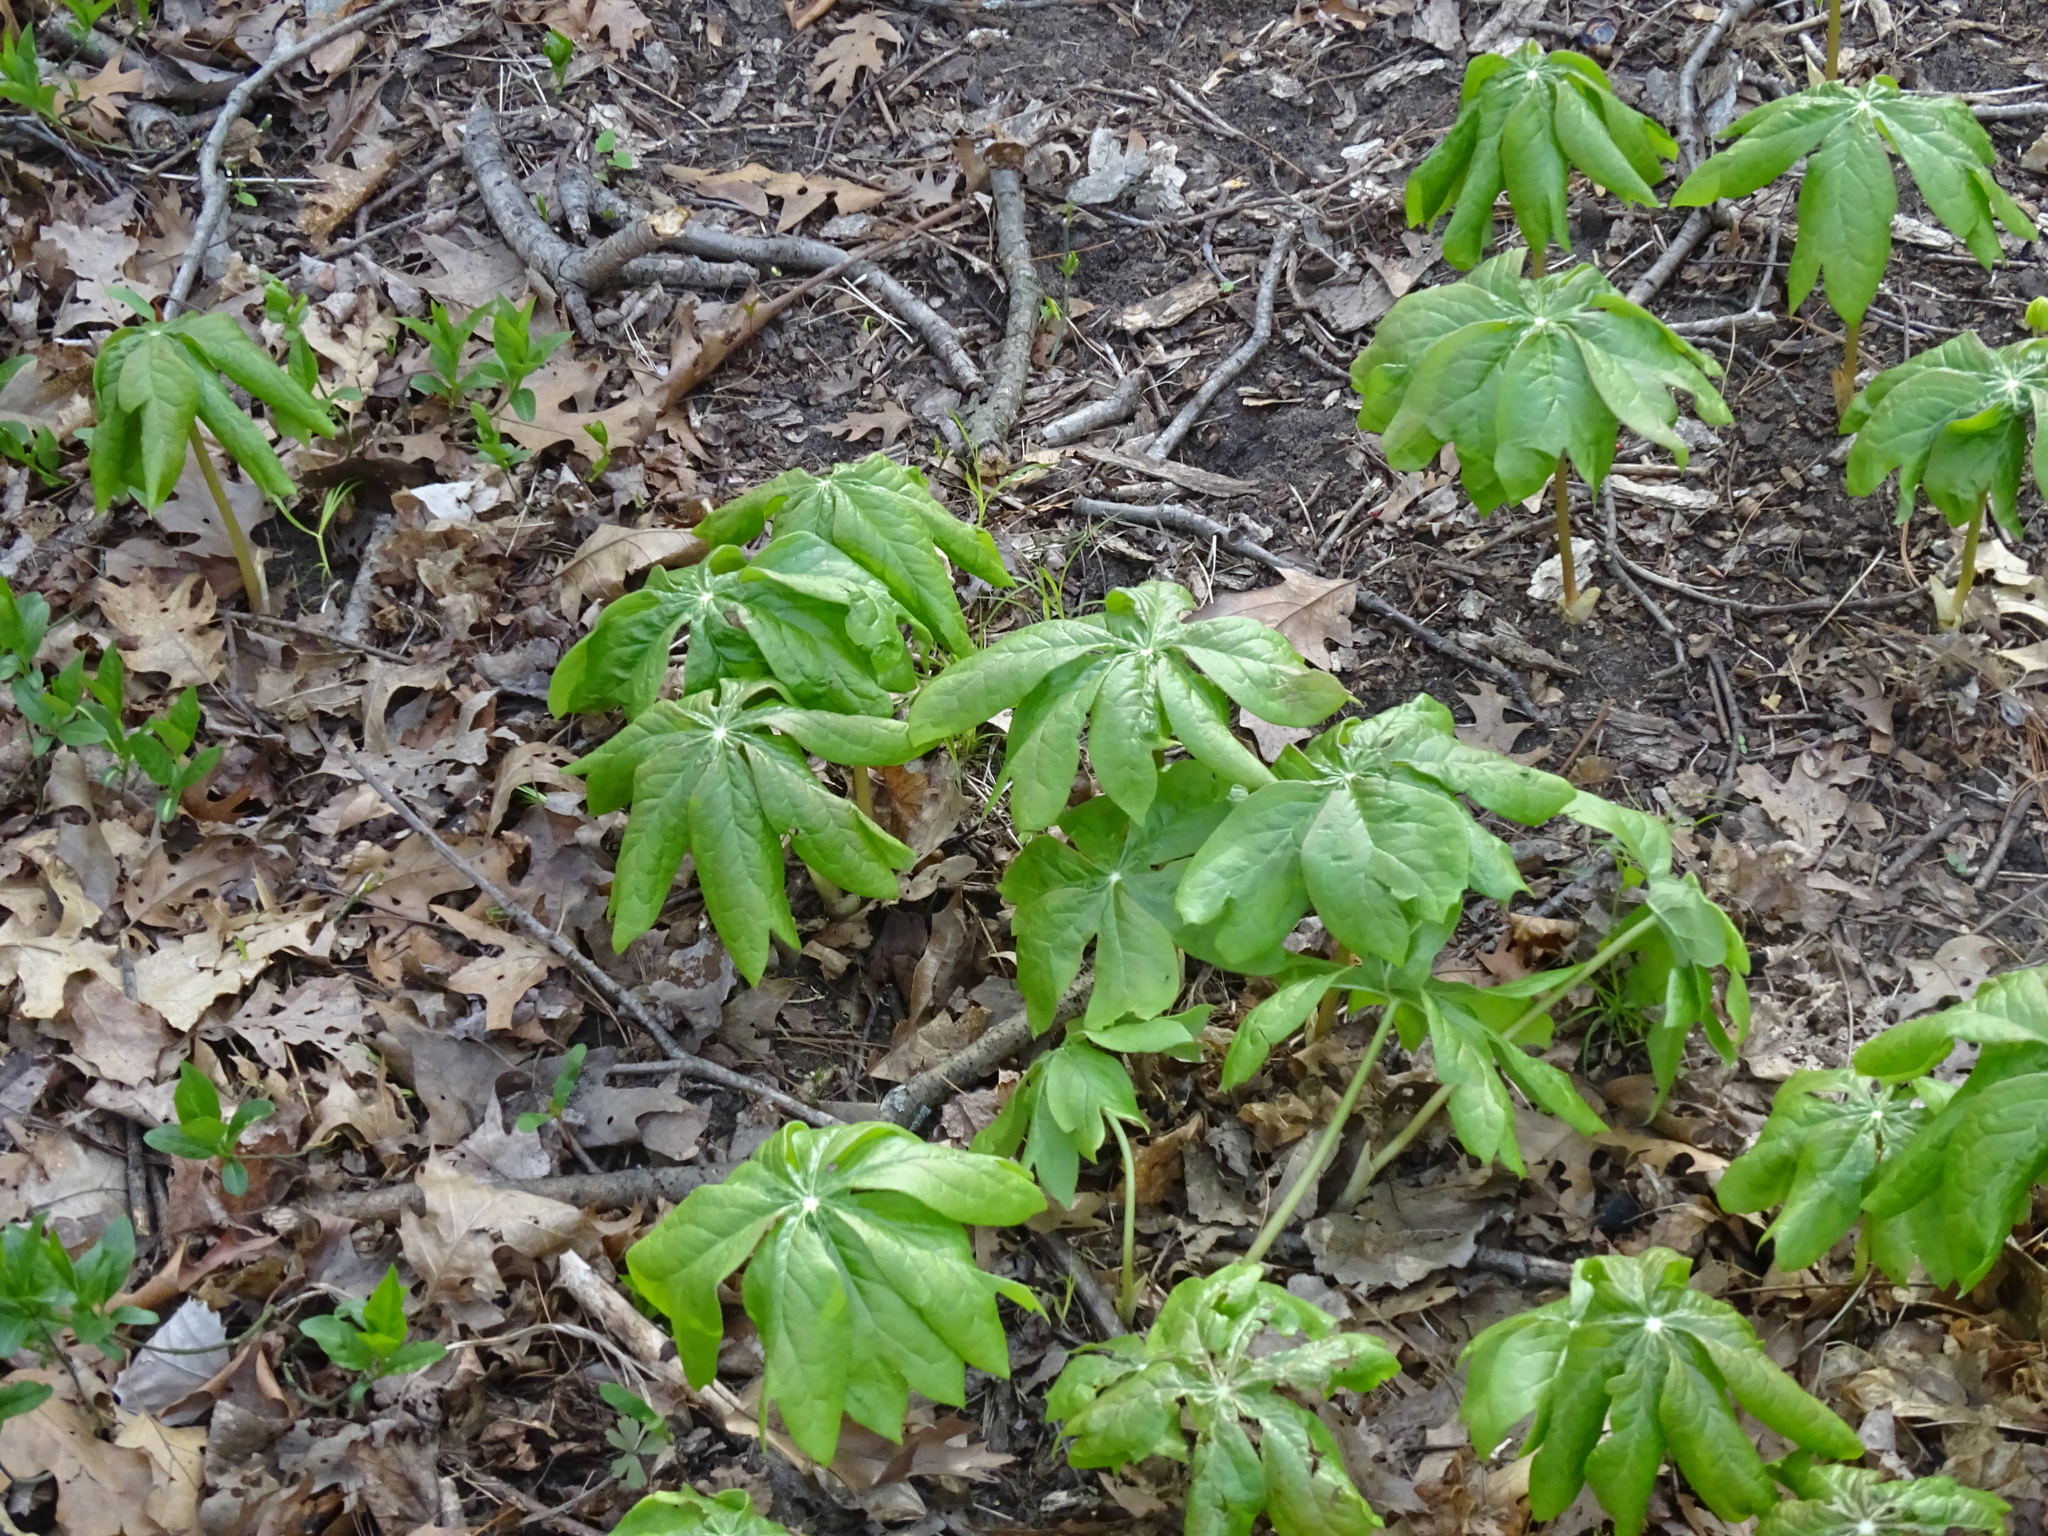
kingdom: Plantae
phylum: Tracheophyta
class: Magnoliopsida
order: Ranunculales
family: Berberidaceae
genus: Podophyllum
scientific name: Podophyllum peltatum
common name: Wild mandrake
